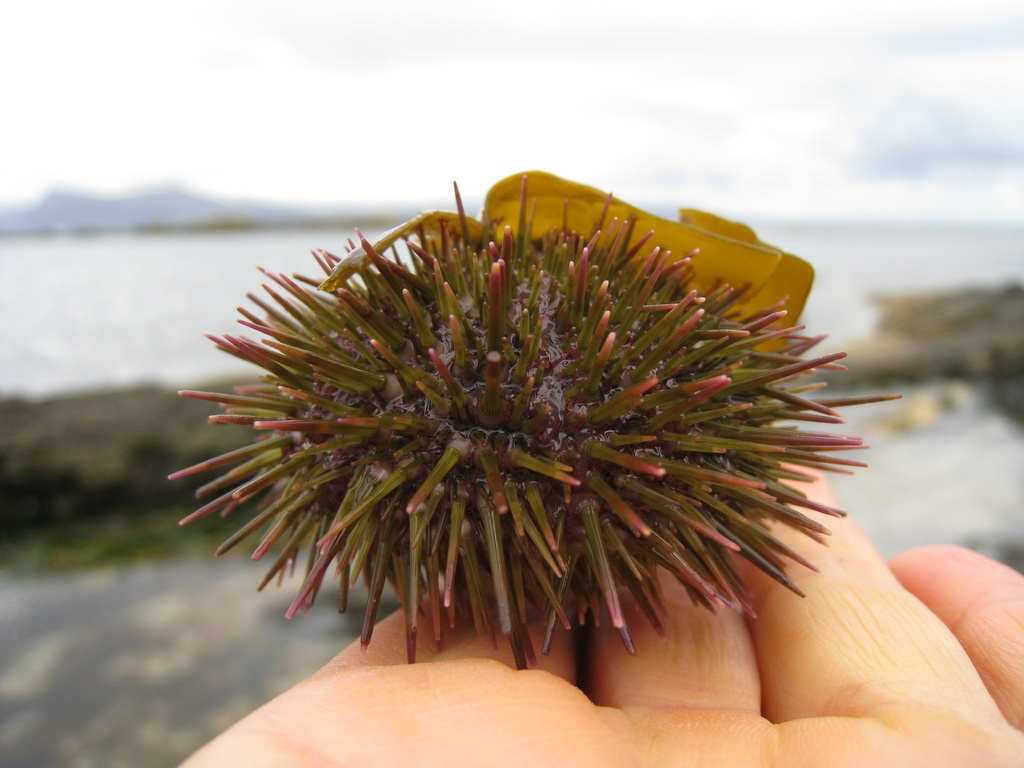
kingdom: Animalia
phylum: Echinodermata
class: Echinoidea
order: Camarodonta
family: Parechinidae
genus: Psammechinus
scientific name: Psammechinus miliaris
